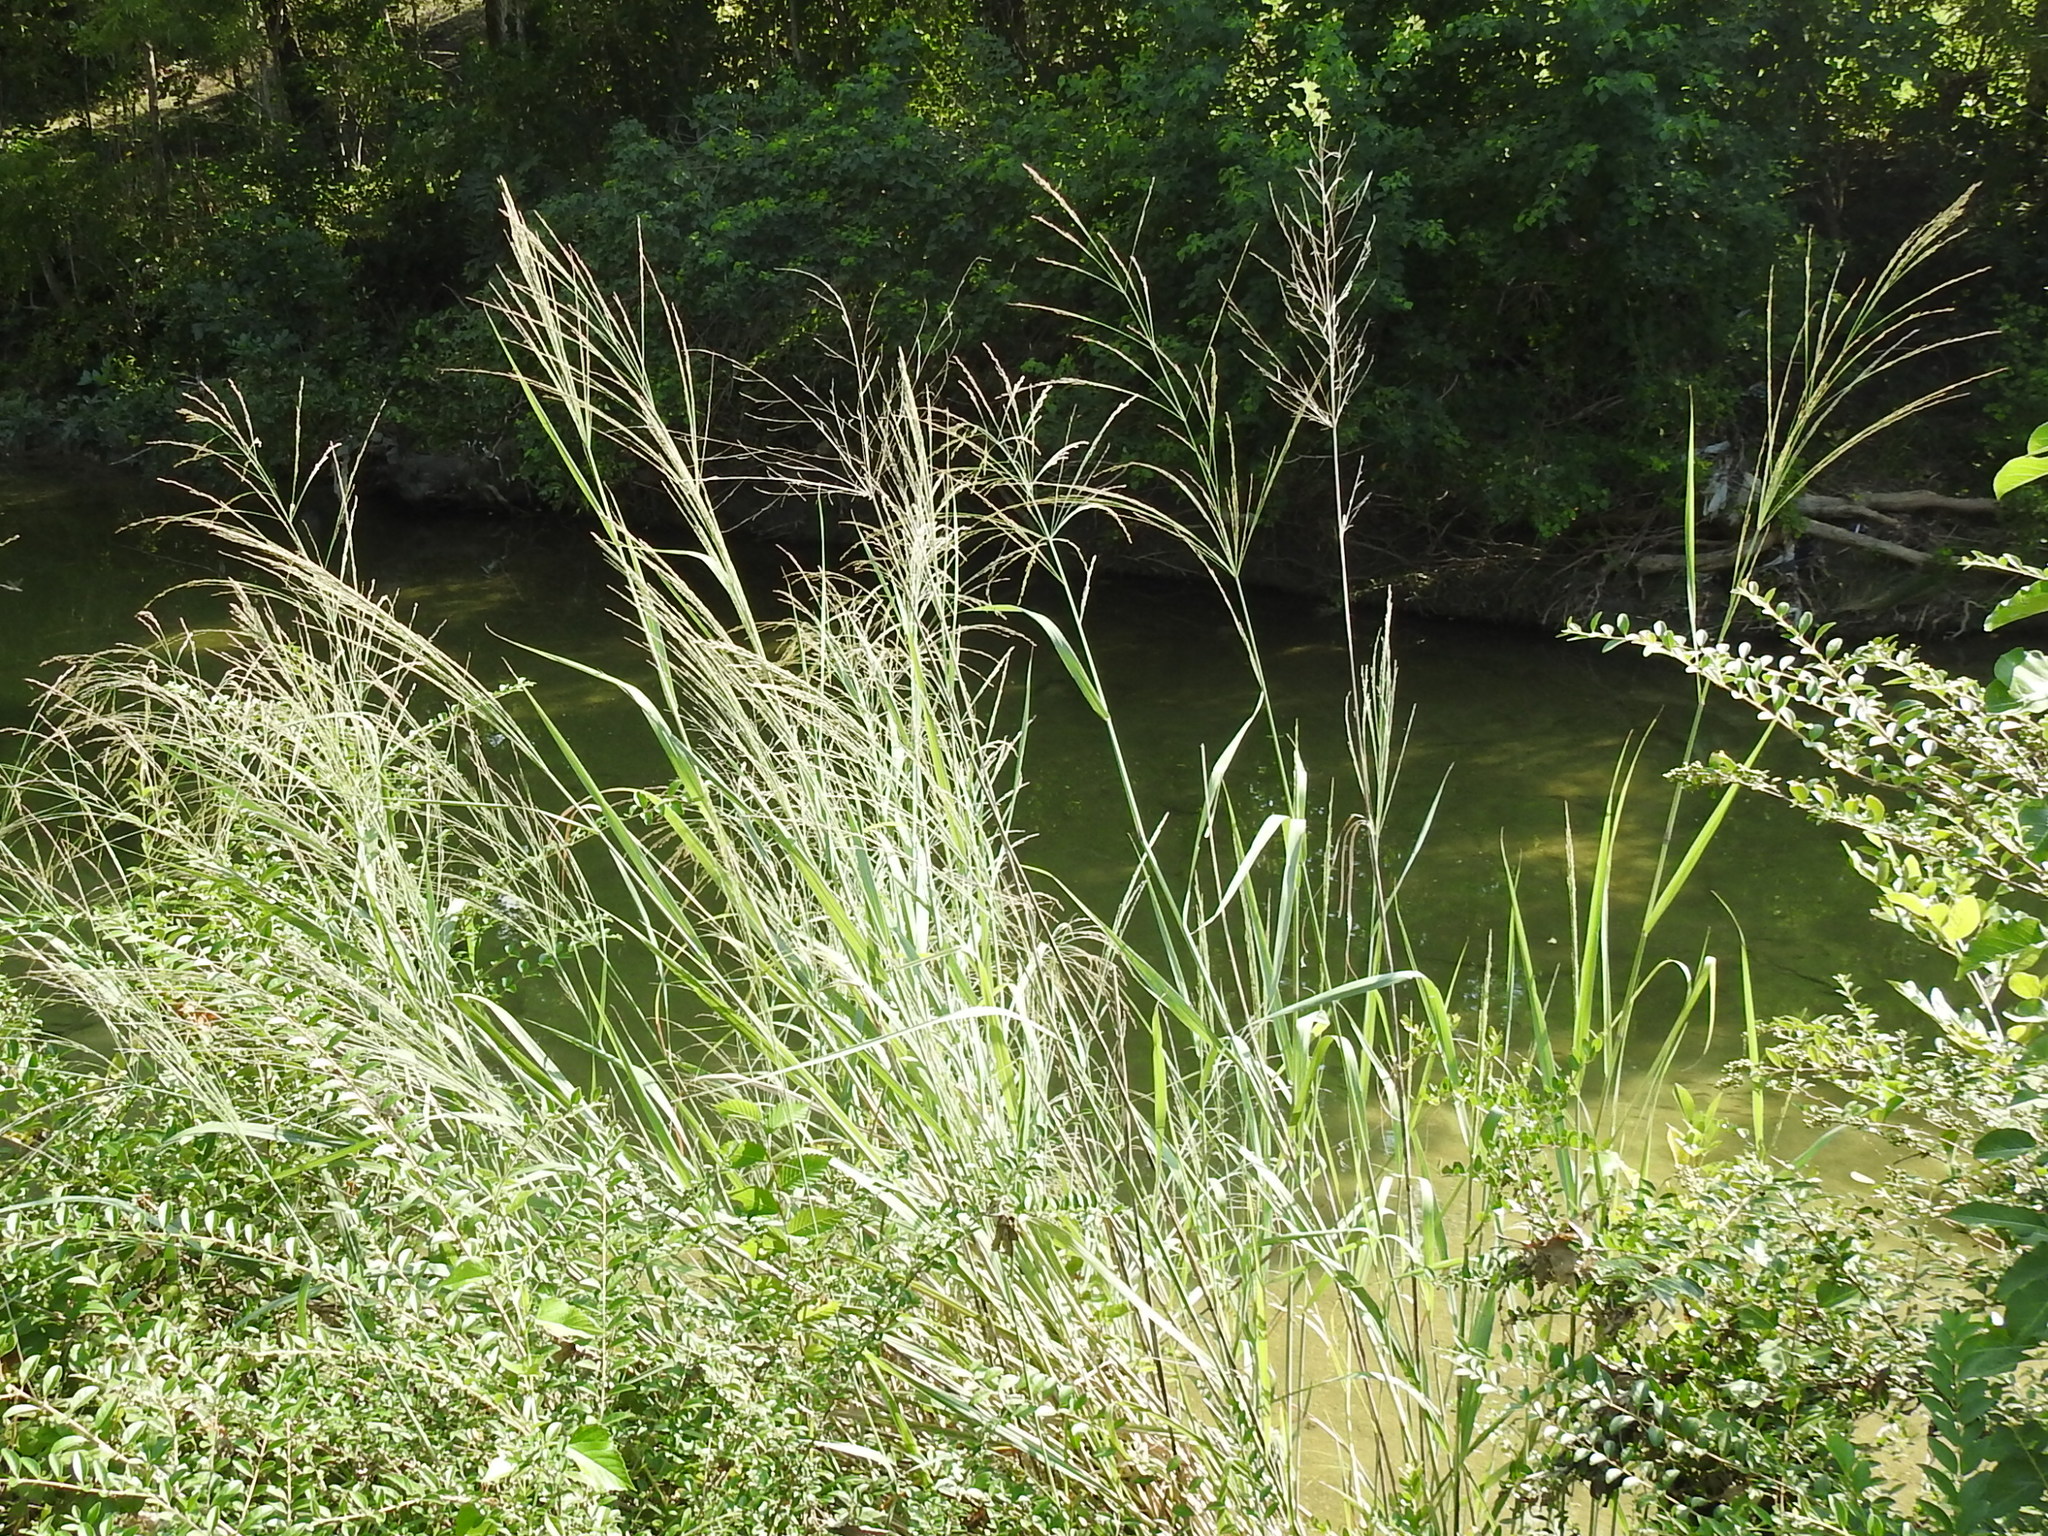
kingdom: Plantae
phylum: Tracheophyta
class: Liliopsida
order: Poales
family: Poaceae
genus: Panicum
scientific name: Panicum virgatum
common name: Switchgrass
